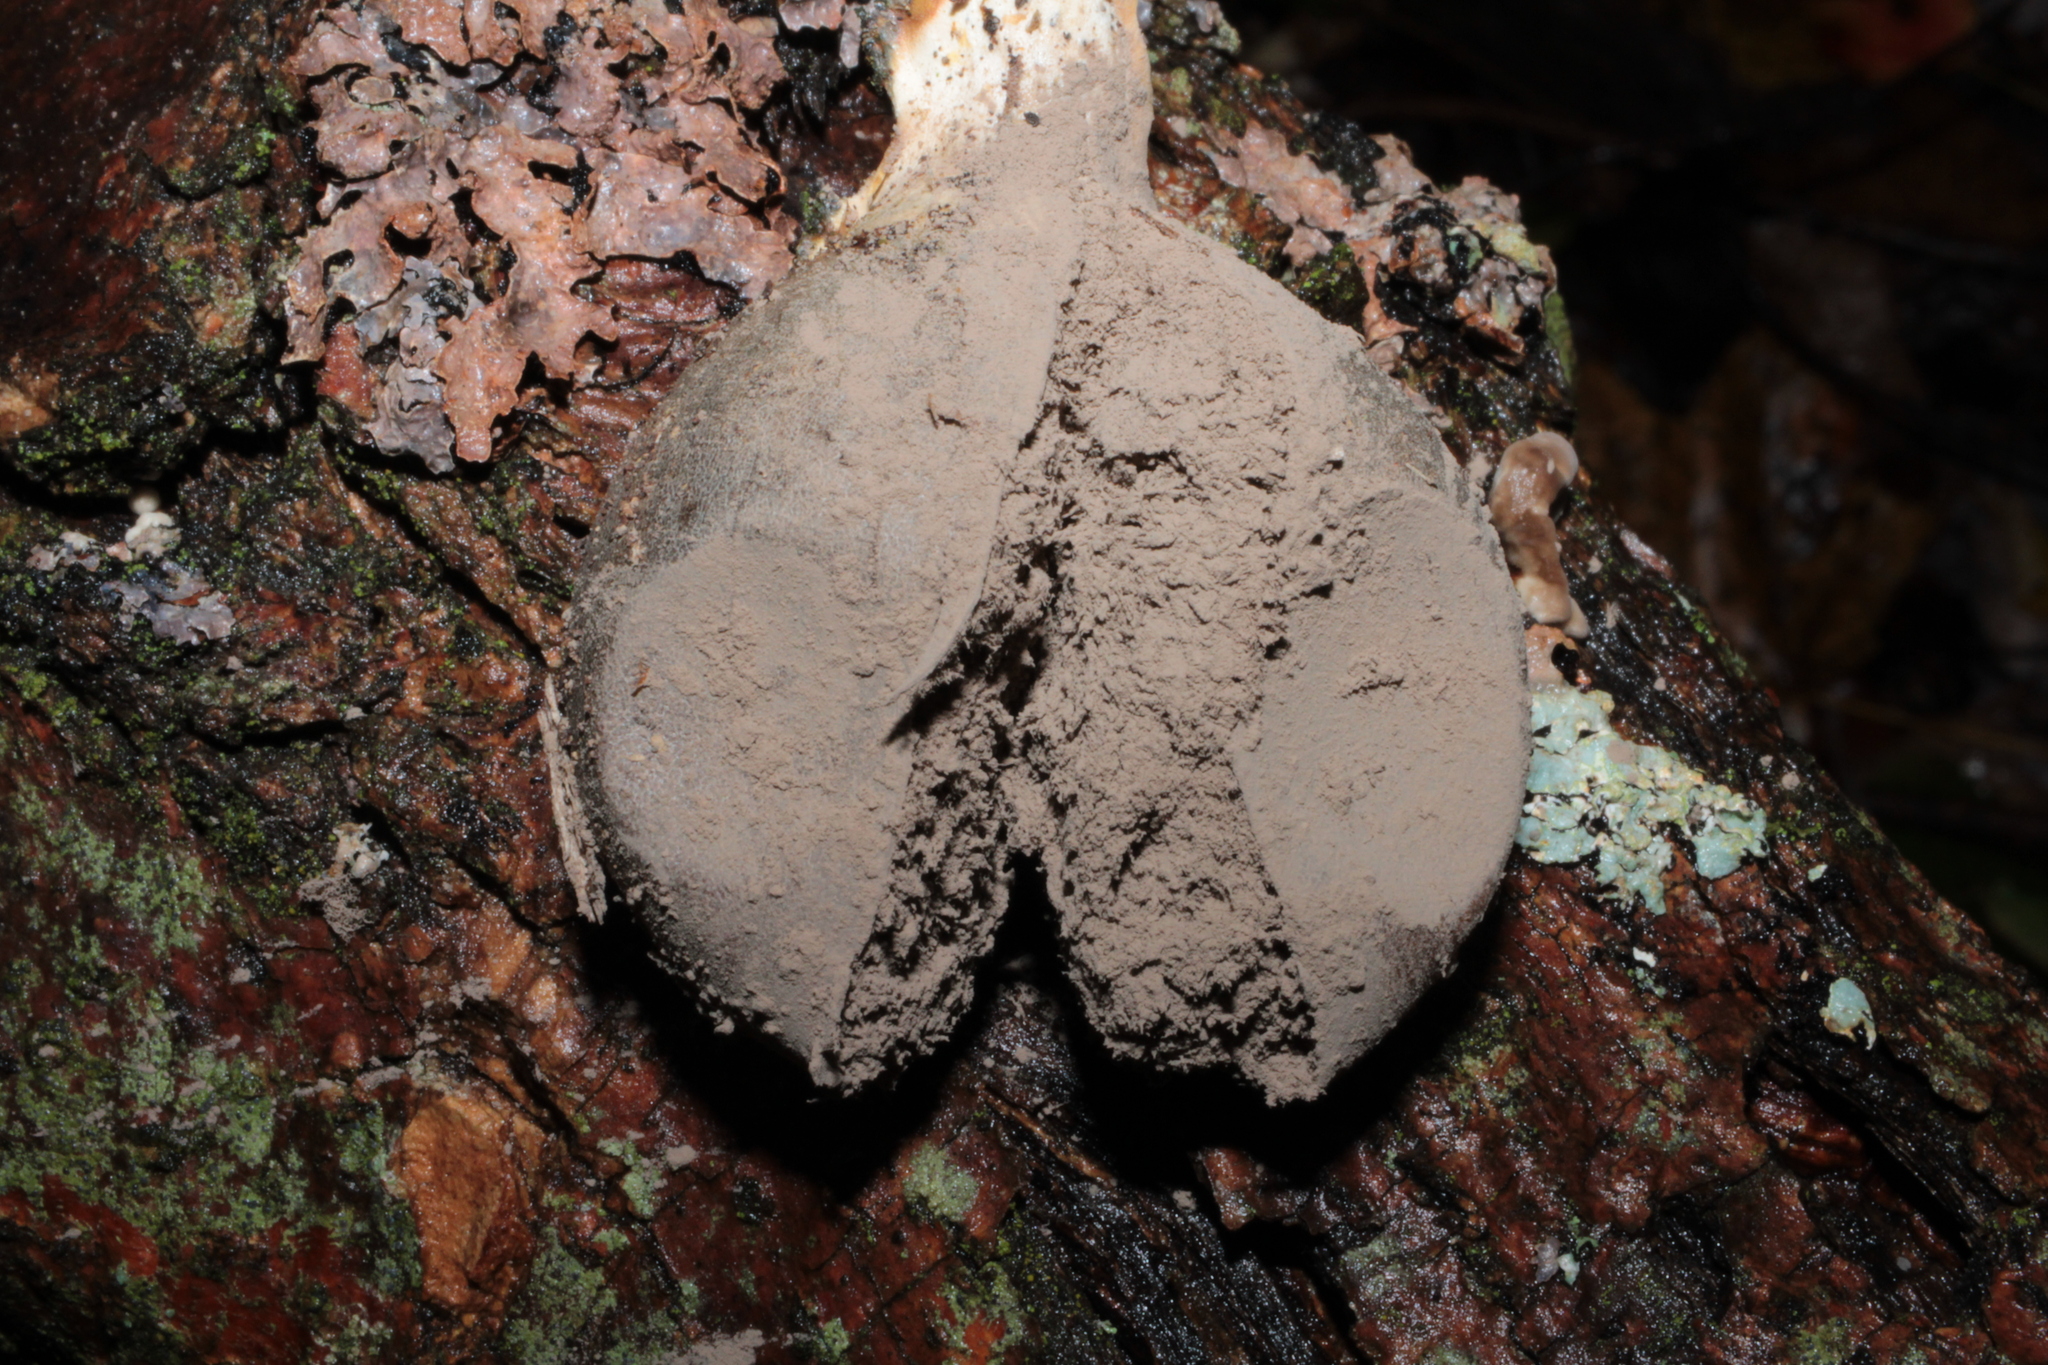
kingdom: Protozoa
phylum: Mycetozoa
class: Myxomycetes
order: Cribrariales
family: Tubiferaceae
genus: Lycogala
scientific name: Lycogala flavofuscum
